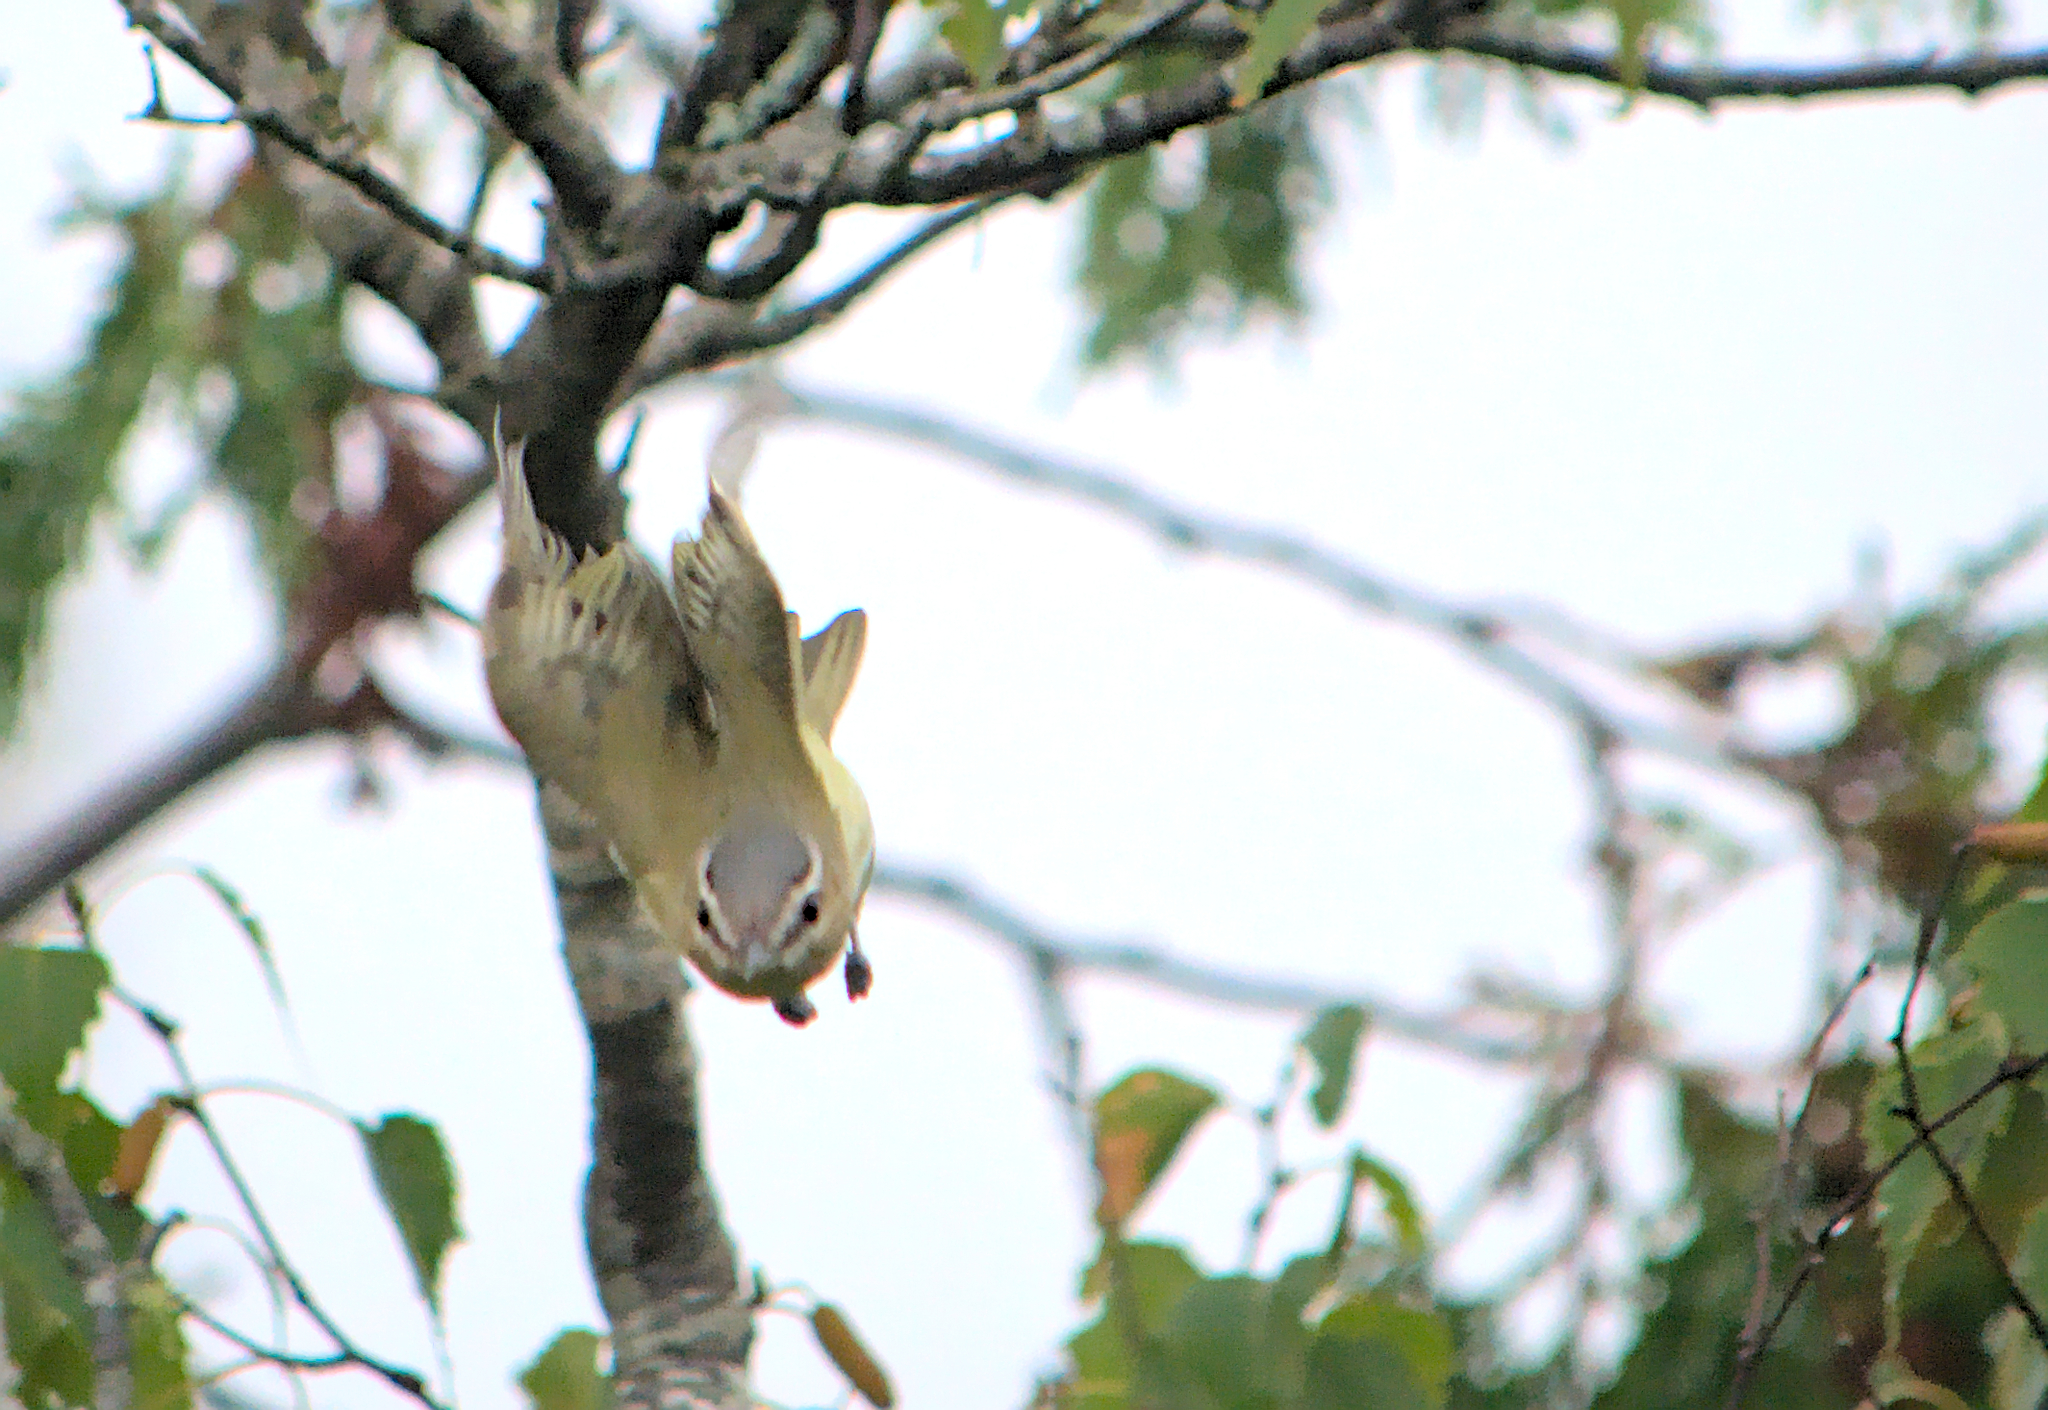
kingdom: Animalia
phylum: Chordata
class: Aves
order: Passeriformes
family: Vireonidae
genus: Vireo
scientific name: Vireo olivaceus
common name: Red-eyed vireo
